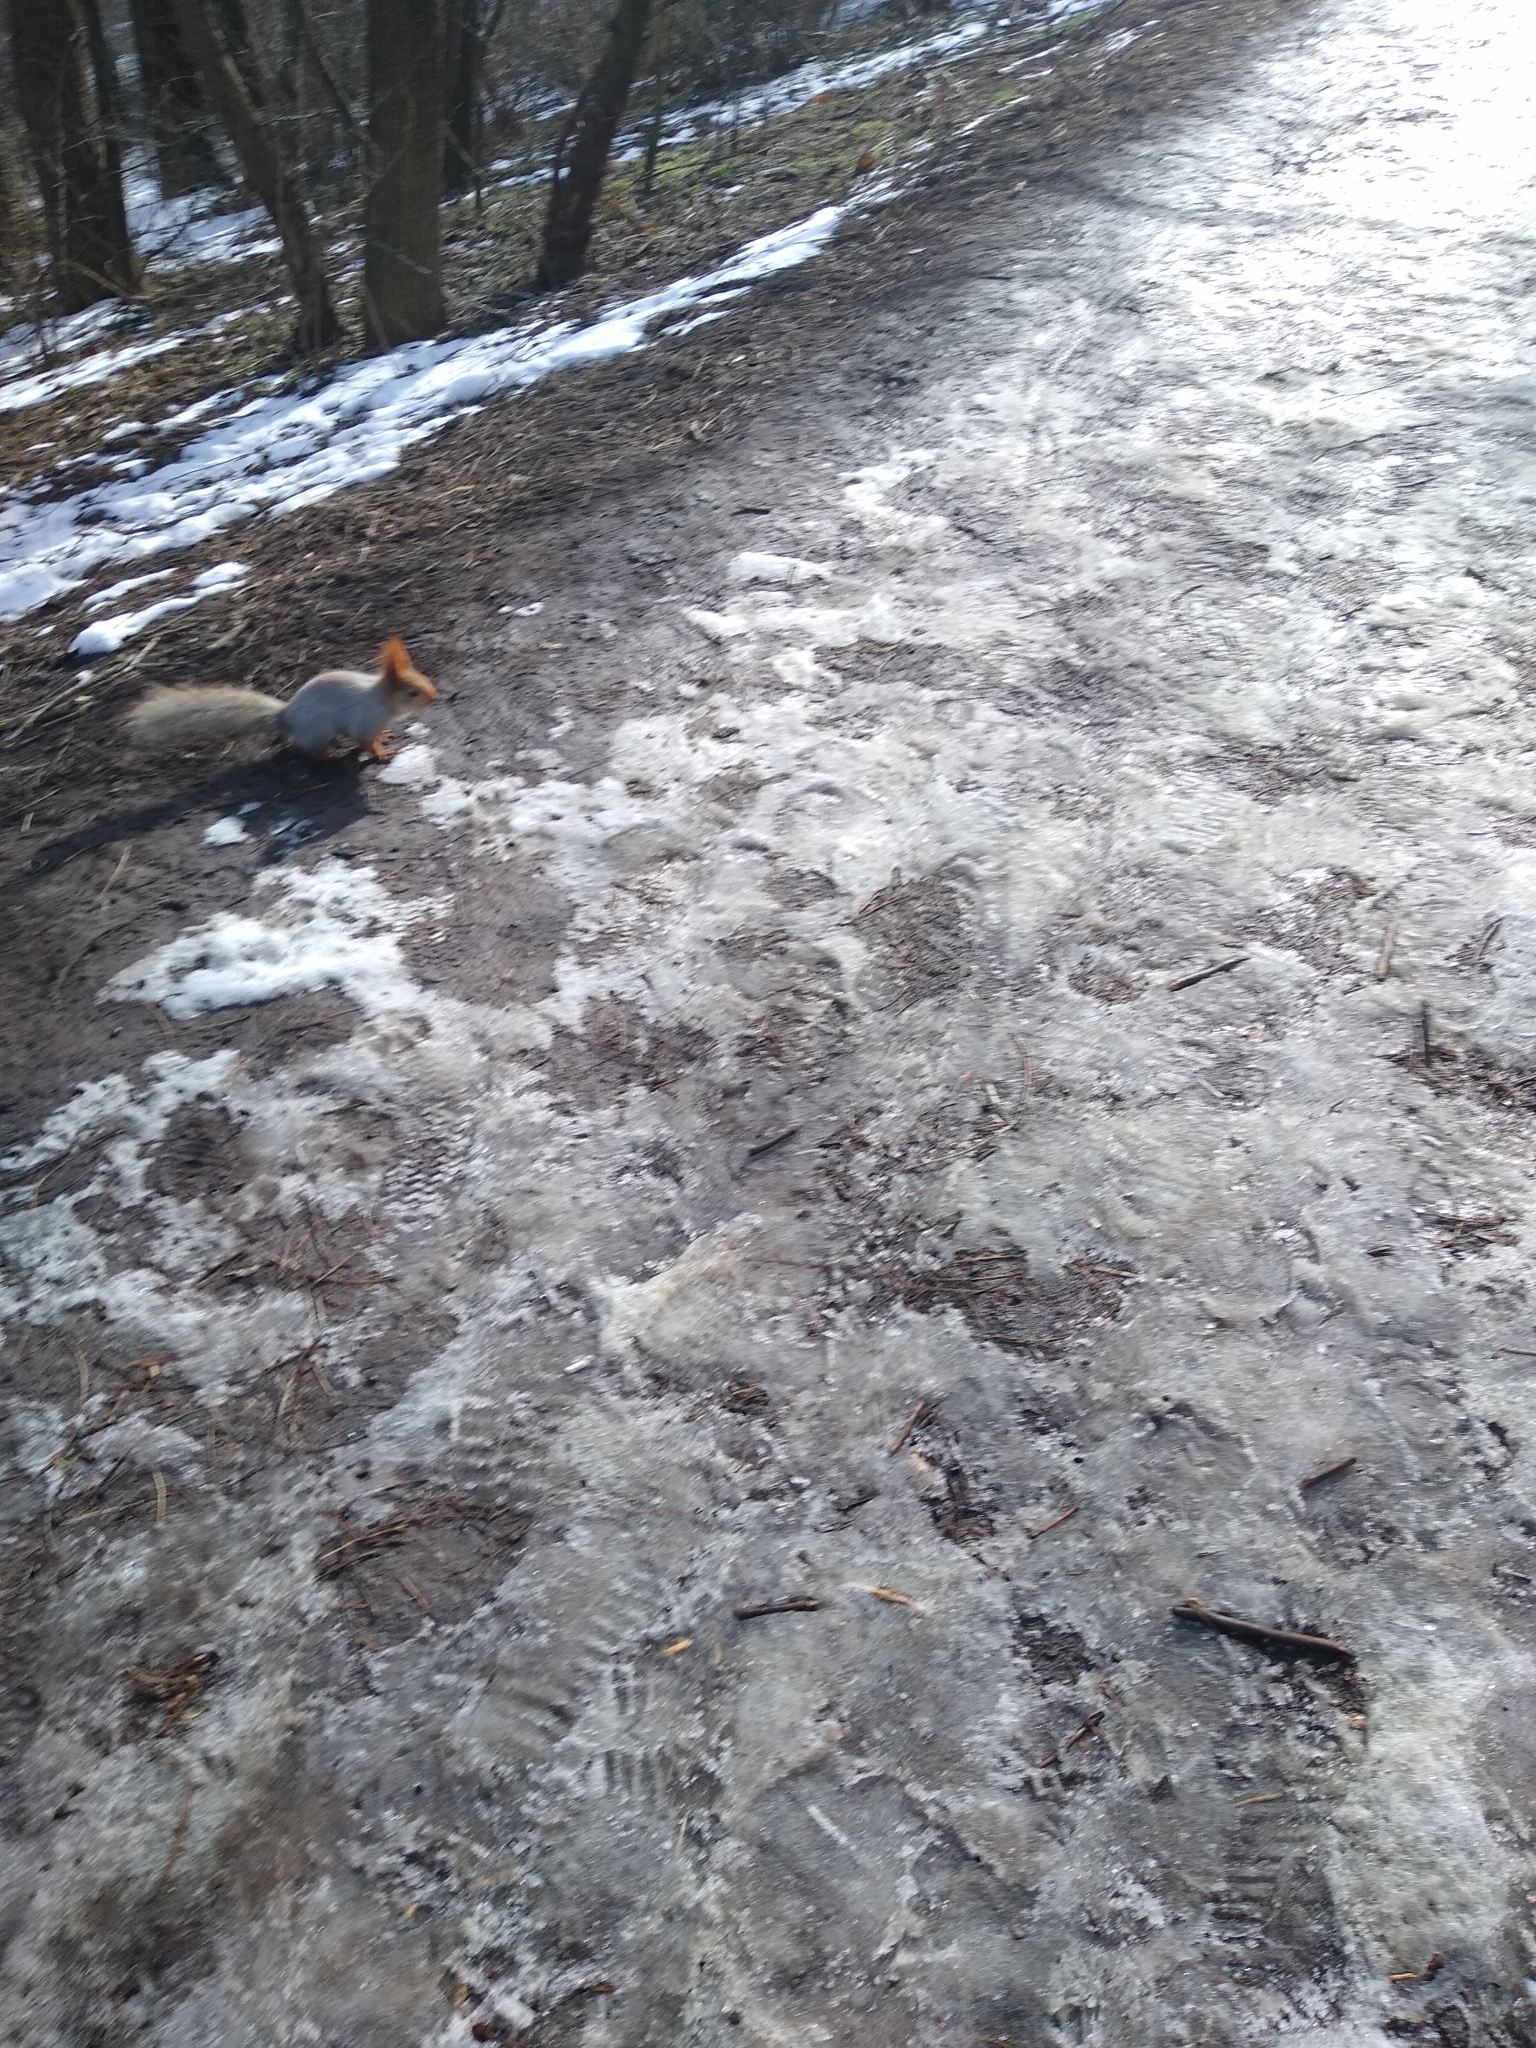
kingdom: Animalia
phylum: Chordata
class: Mammalia
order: Rodentia
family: Sciuridae
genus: Sciurus
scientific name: Sciurus vulgaris
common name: Eurasian red squirrel
